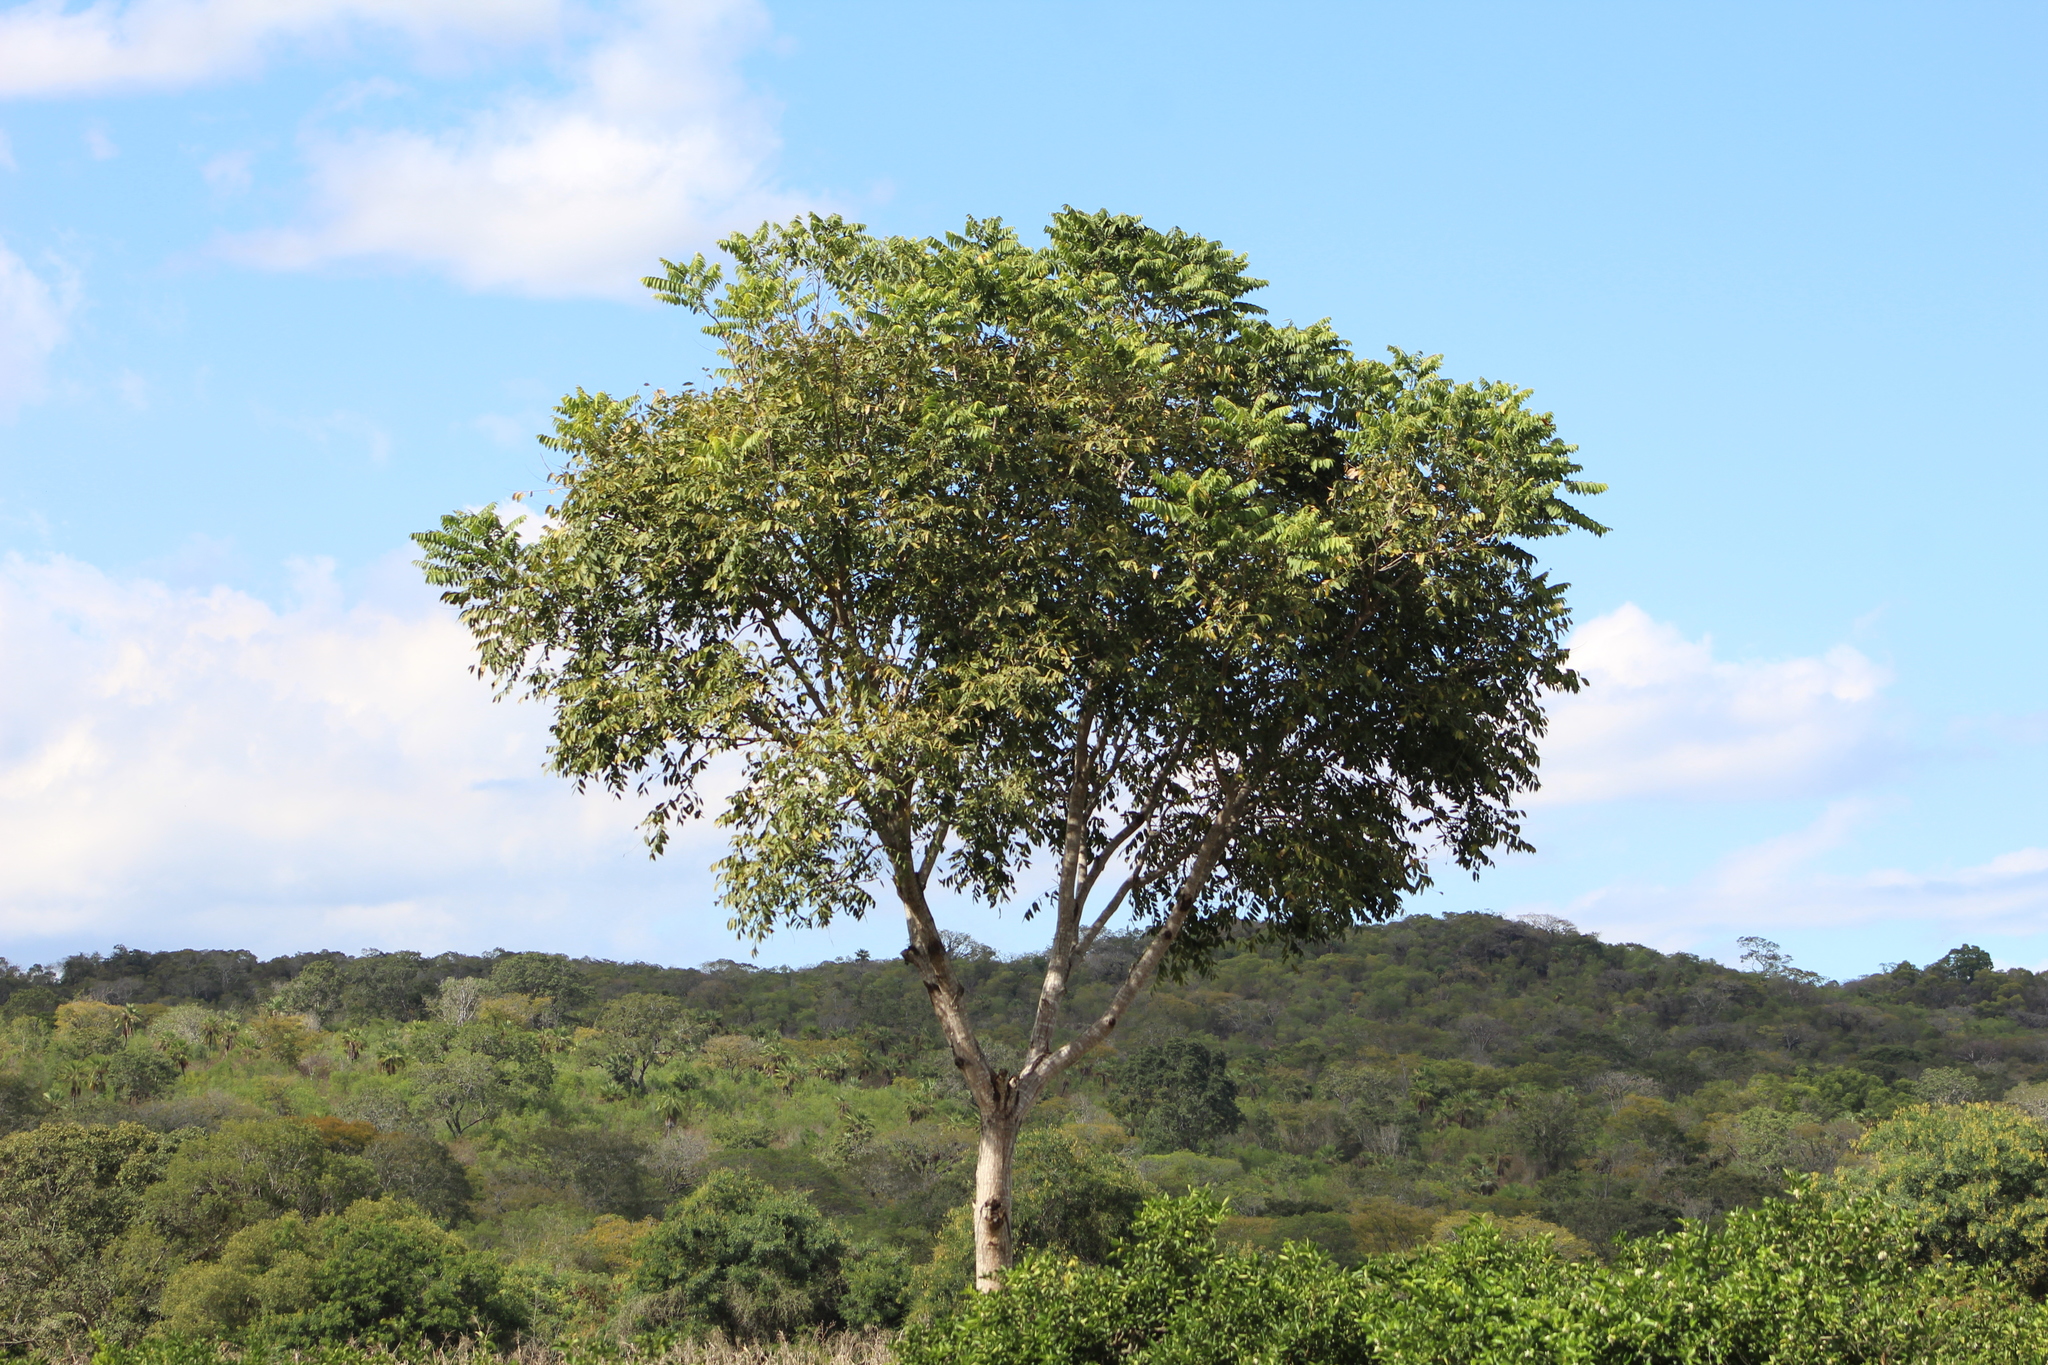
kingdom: Plantae
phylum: Tracheophyta
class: Magnoliopsida
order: Sapindales
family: Meliaceae
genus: Cedrela
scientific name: Cedrela odorata
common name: Red cedar
